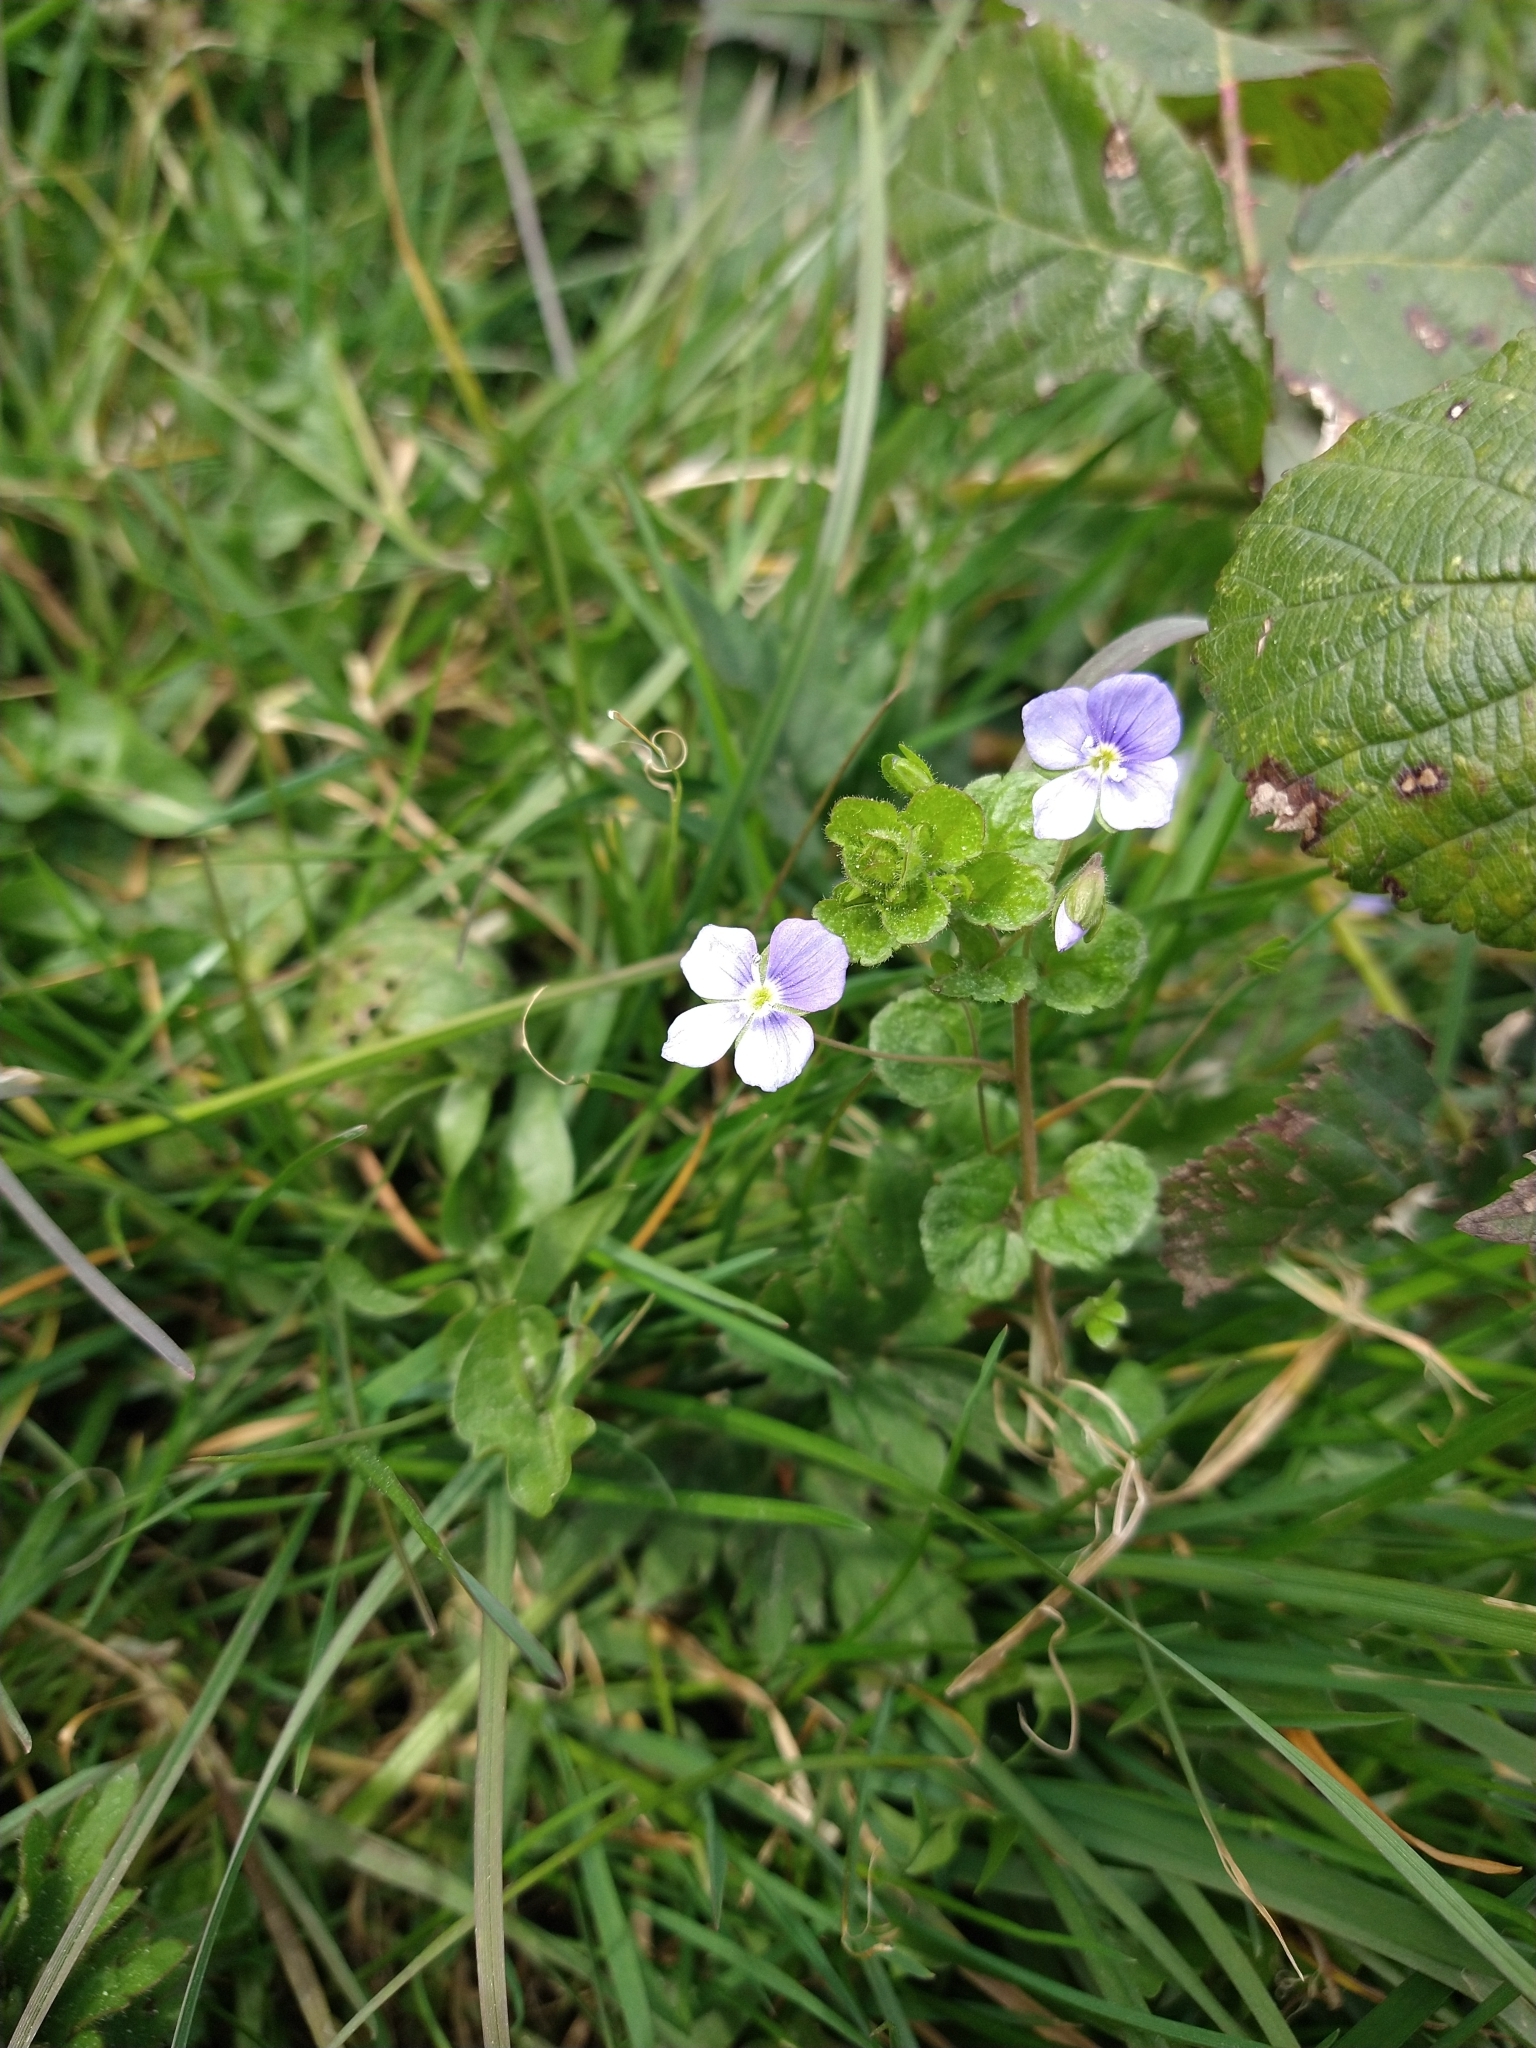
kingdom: Plantae
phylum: Tracheophyta
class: Magnoliopsida
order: Lamiales
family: Plantaginaceae
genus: Veronica
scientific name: Veronica filiformis
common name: Slender speedwell
